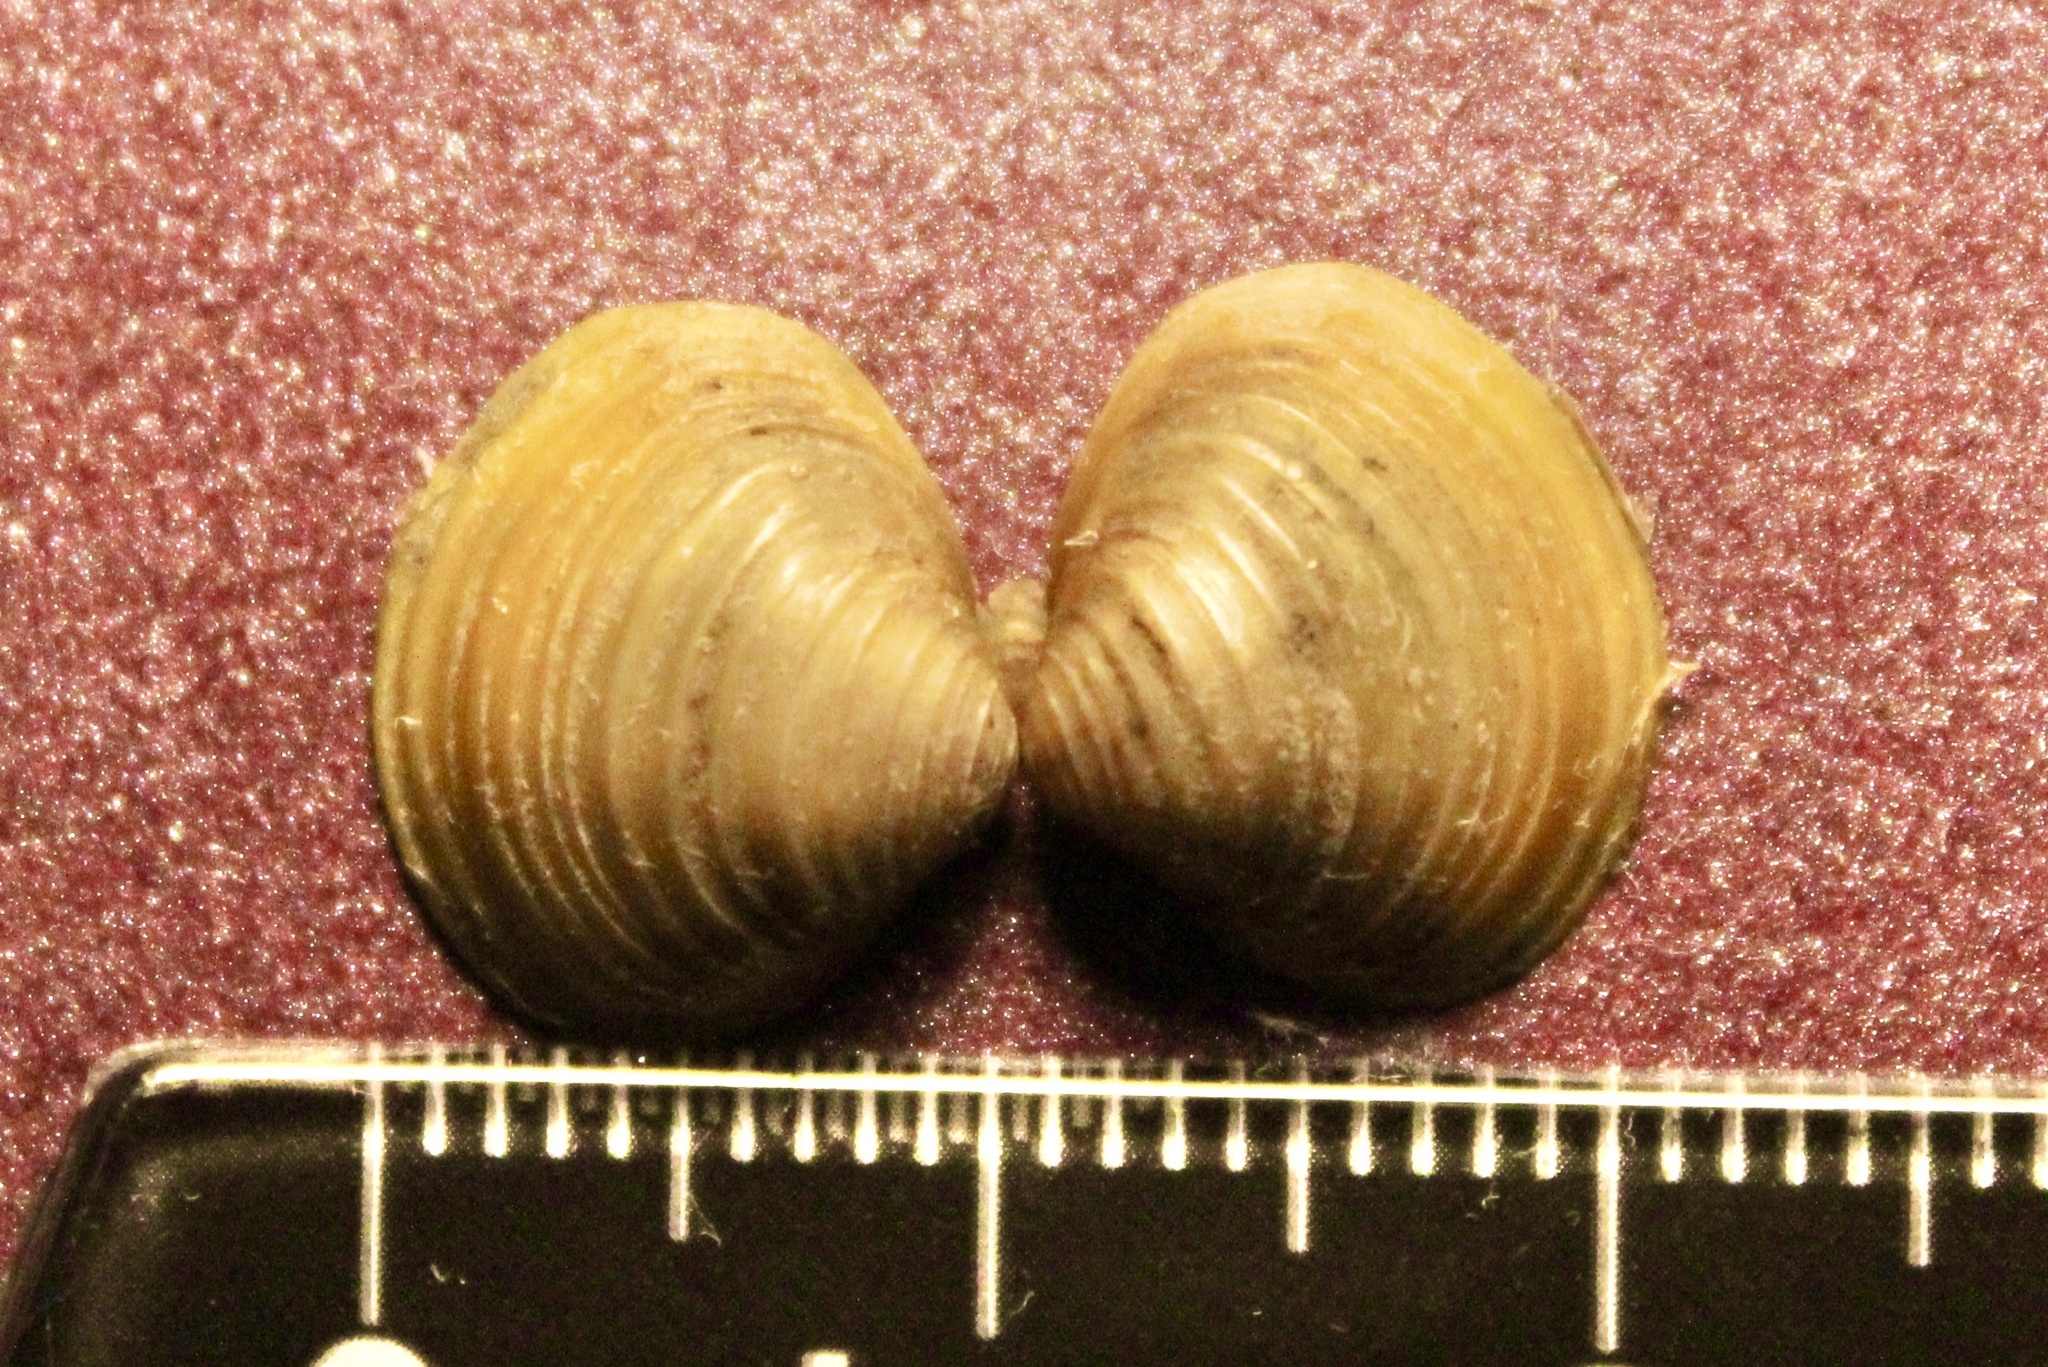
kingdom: Animalia
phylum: Mollusca
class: Bivalvia
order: Venerida
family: Cyrenidae
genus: Corbicula
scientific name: Corbicula fluminea
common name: Asian clam
